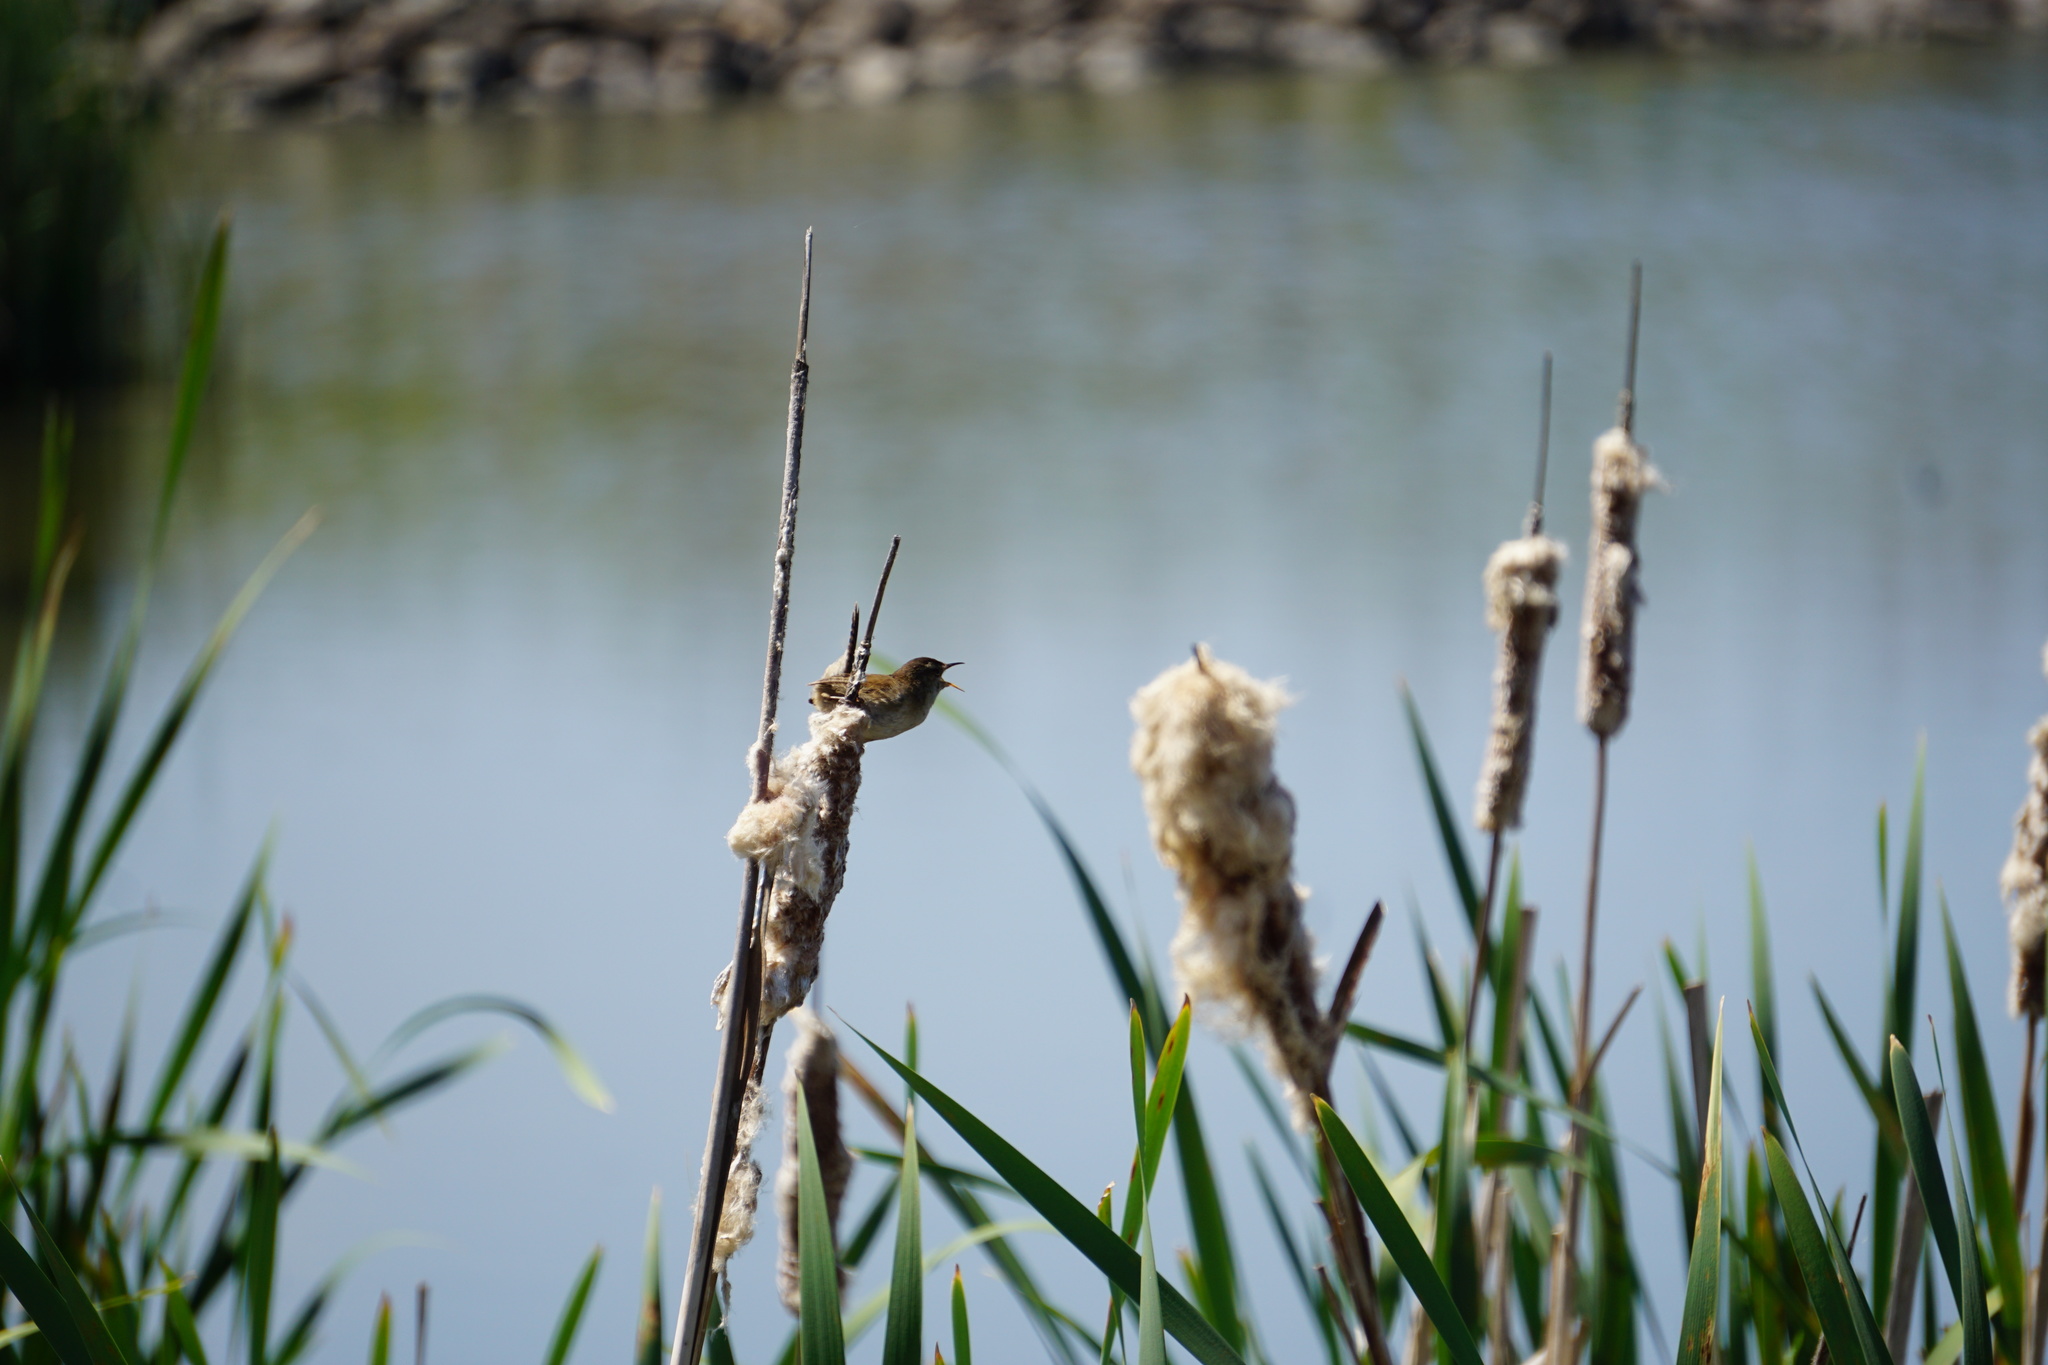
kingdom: Animalia
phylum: Chordata
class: Aves
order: Passeriformes
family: Troglodytidae
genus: Cistothorus
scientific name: Cistothorus palustris
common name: Marsh wren
